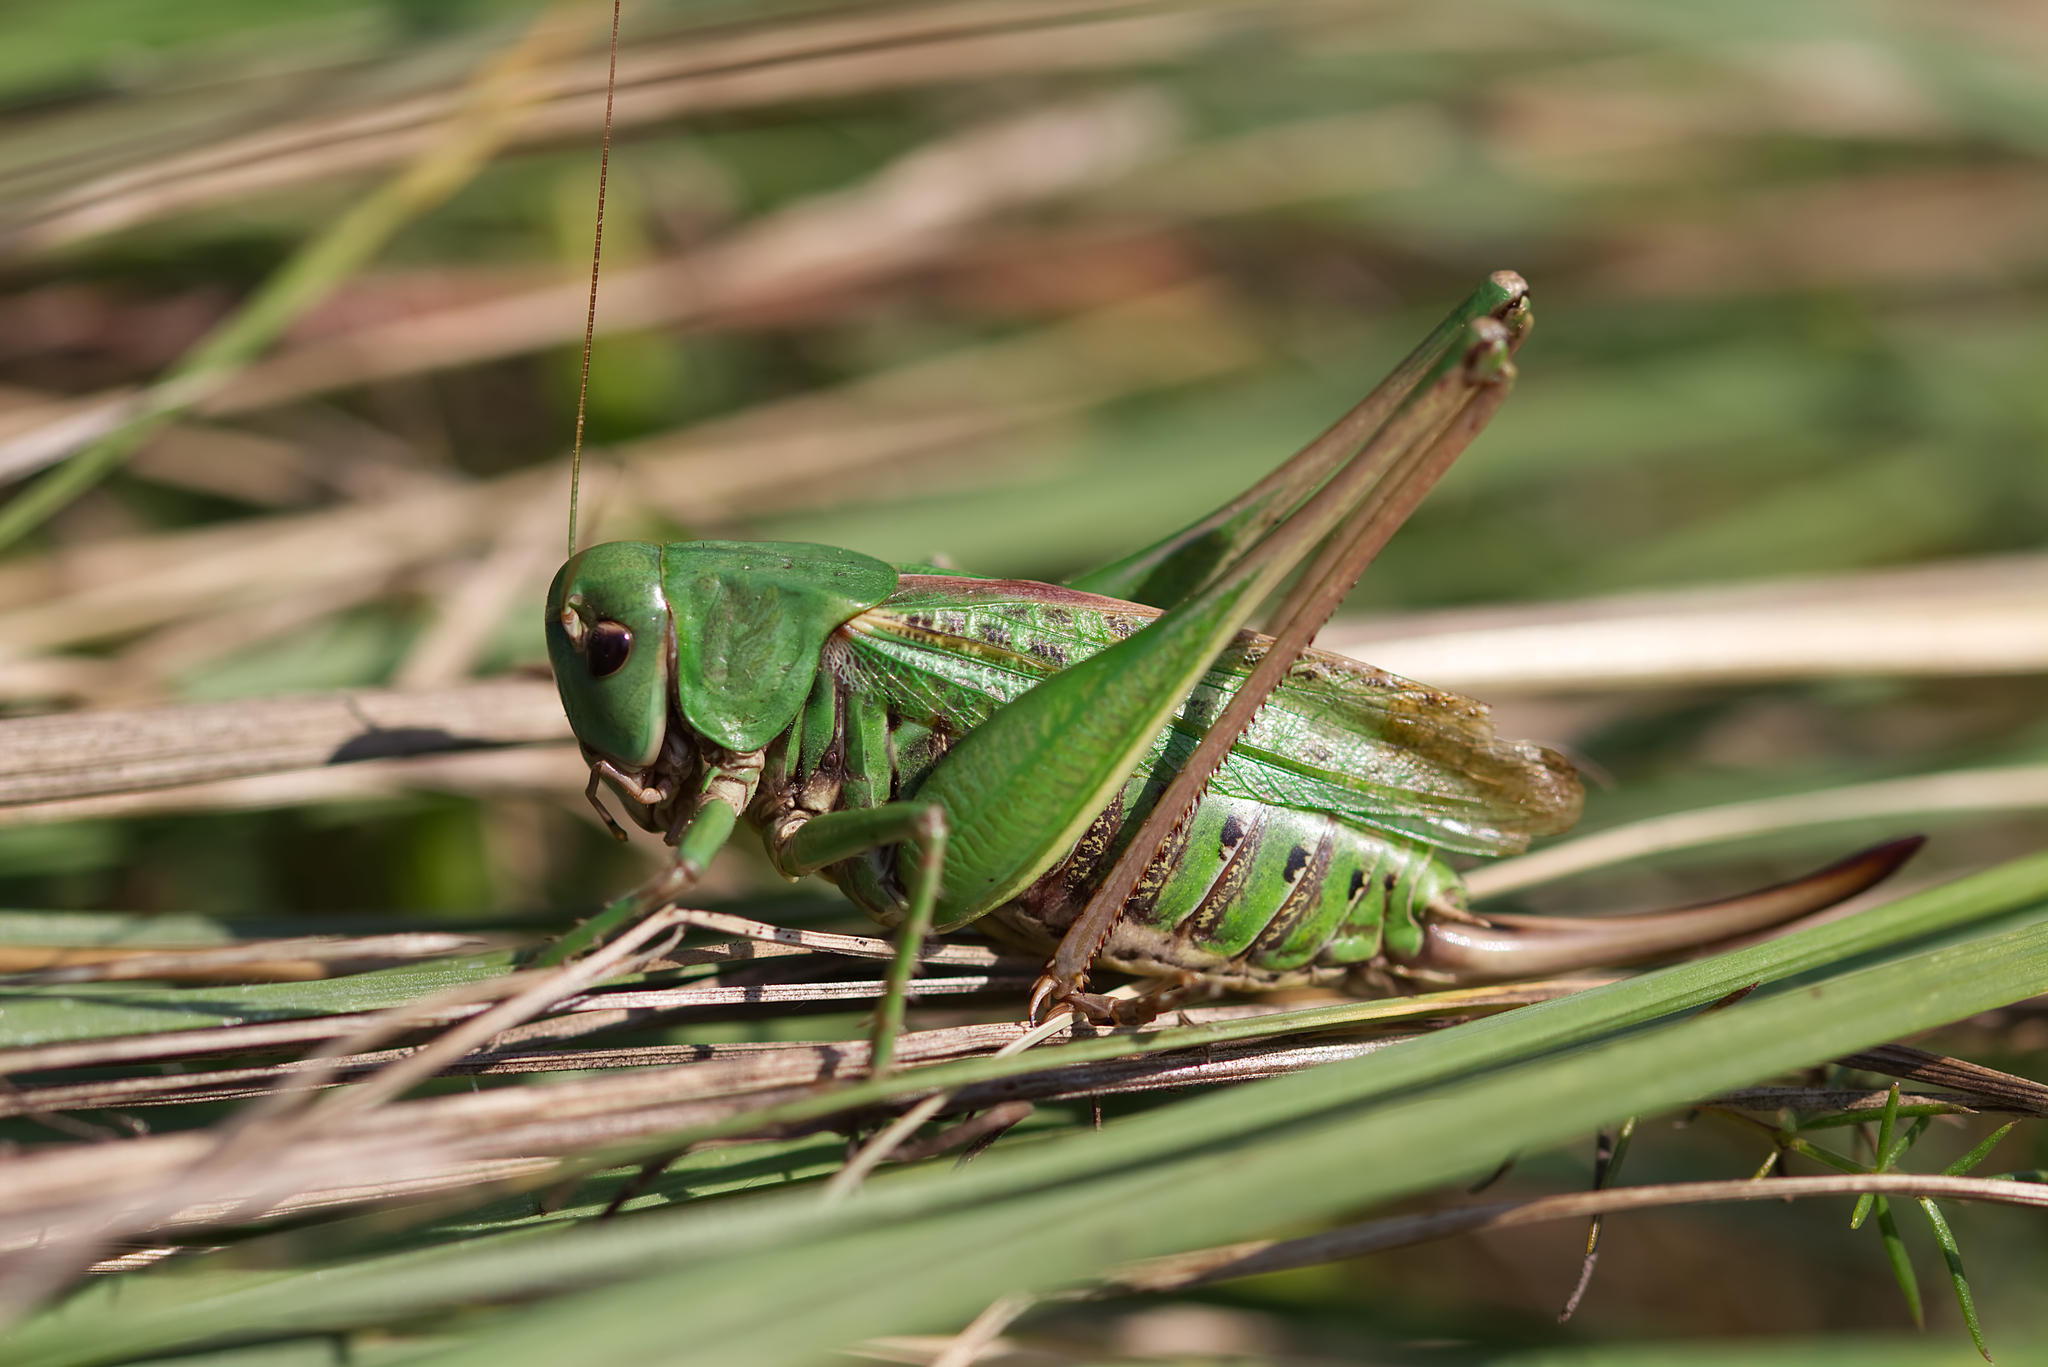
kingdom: Animalia
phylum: Arthropoda
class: Insecta
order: Orthoptera
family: Tettigoniidae
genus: Decticus
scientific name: Decticus verrucivorus
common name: Wart-biter
